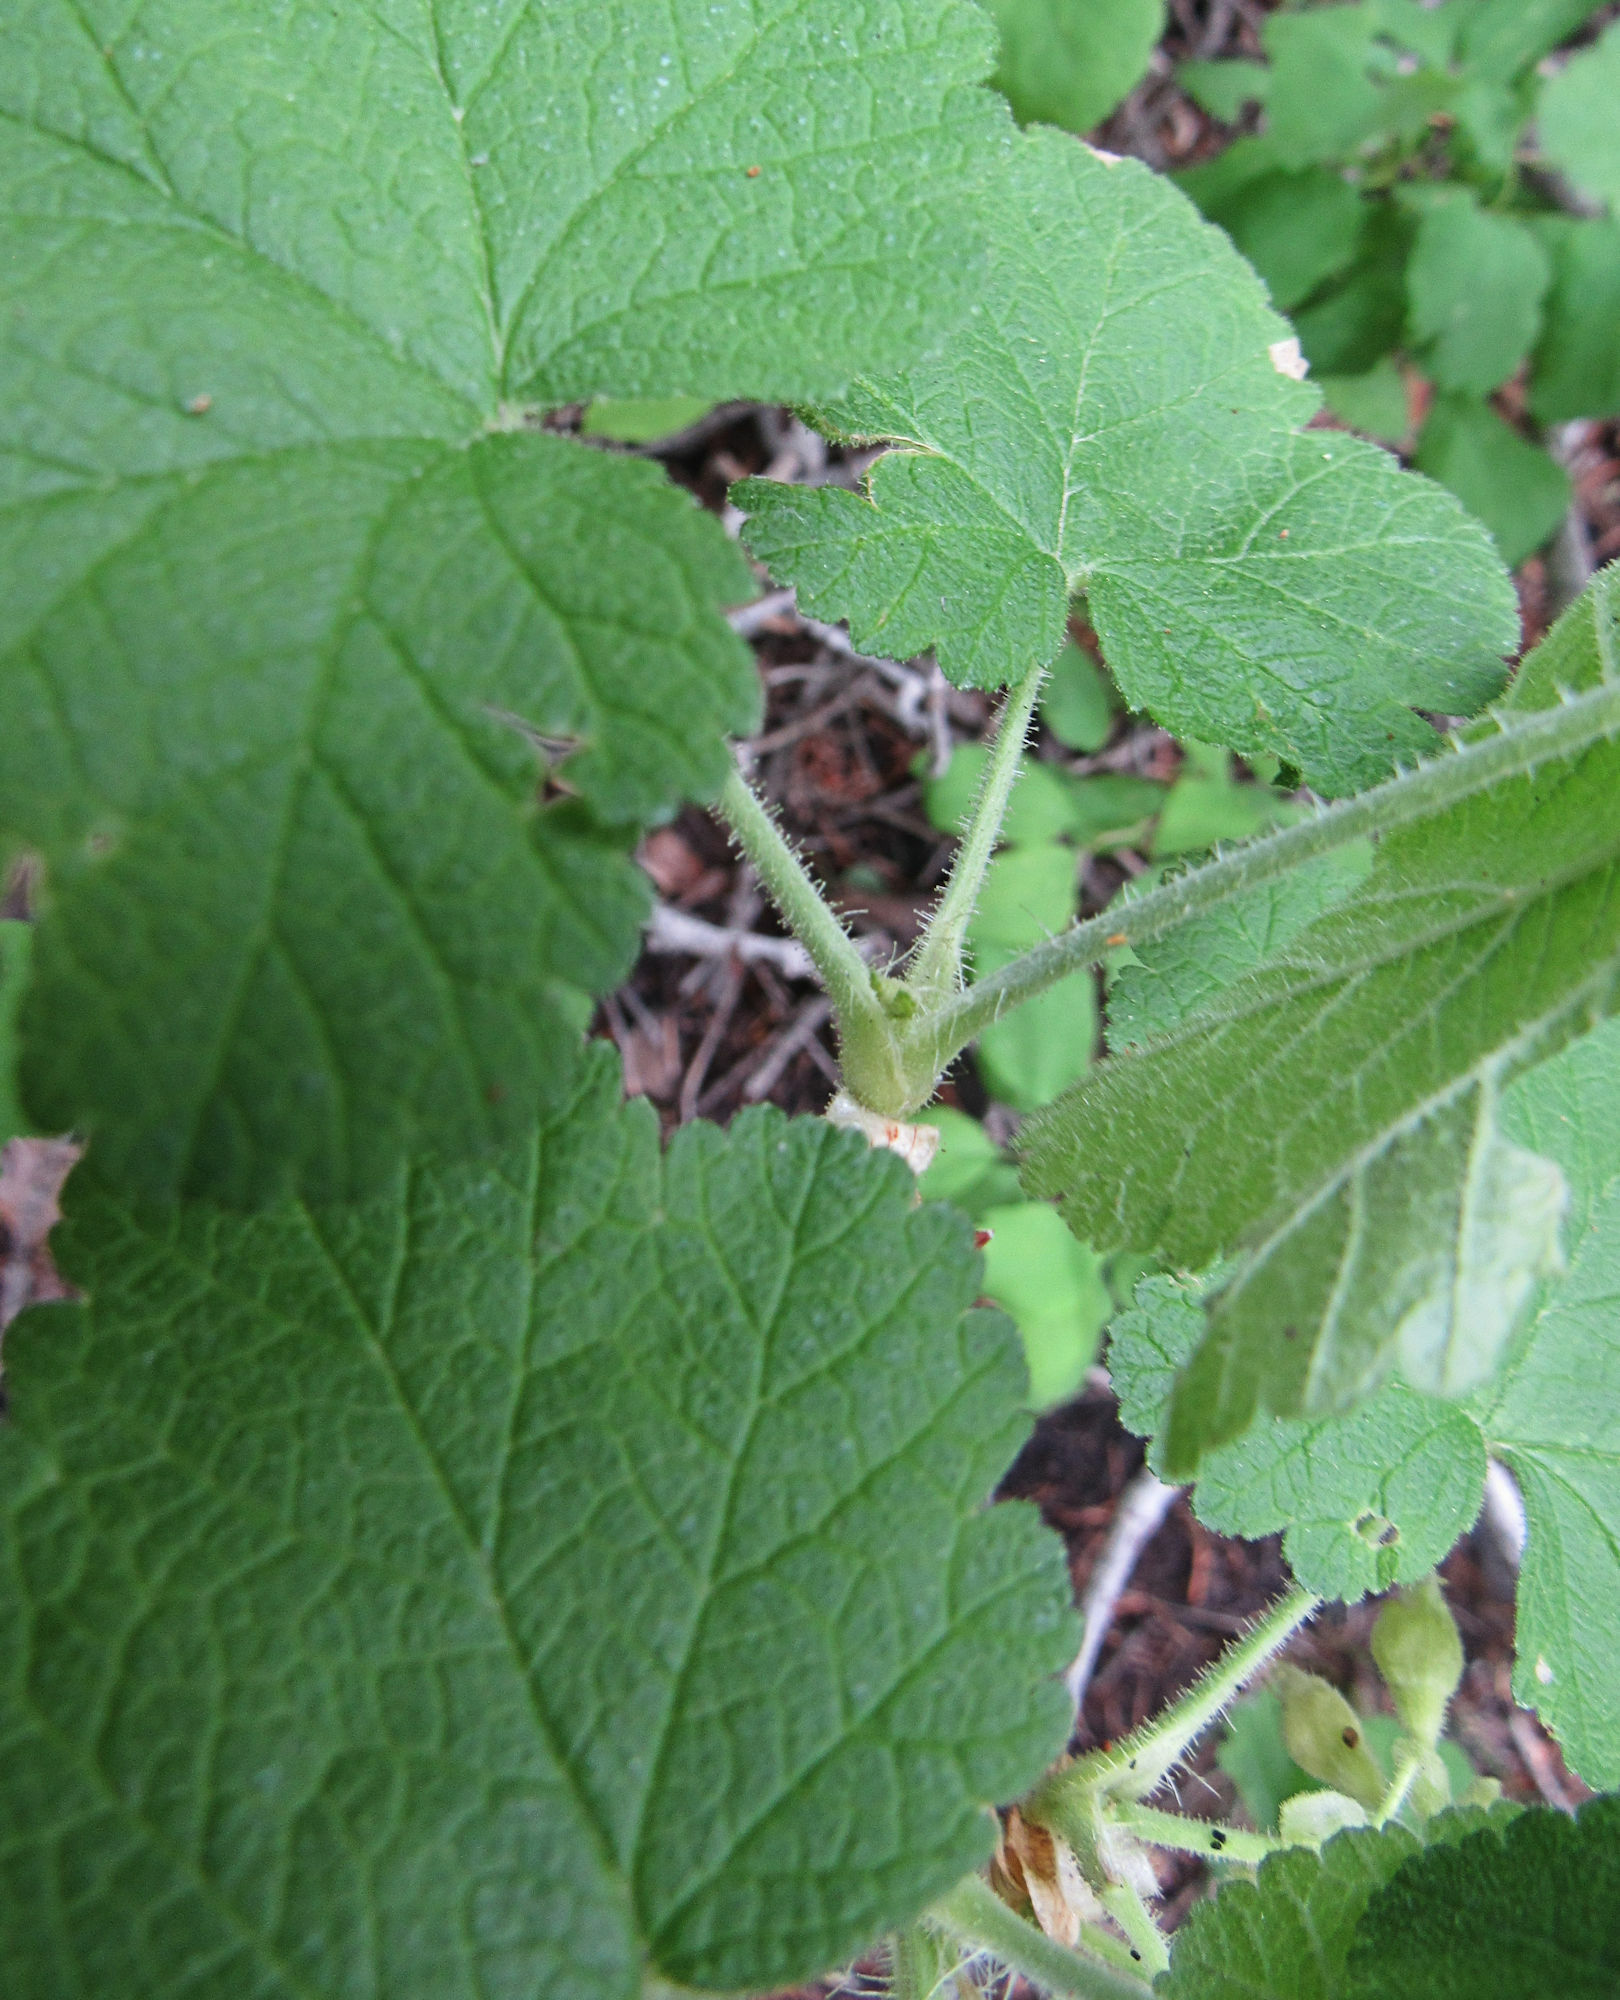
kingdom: Plantae
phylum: Tracheophyta
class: Magnoliopsida
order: Saxifragales
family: Grossulariaceae
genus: Ribes
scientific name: Ribes viscosissimum
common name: Sticky currant
